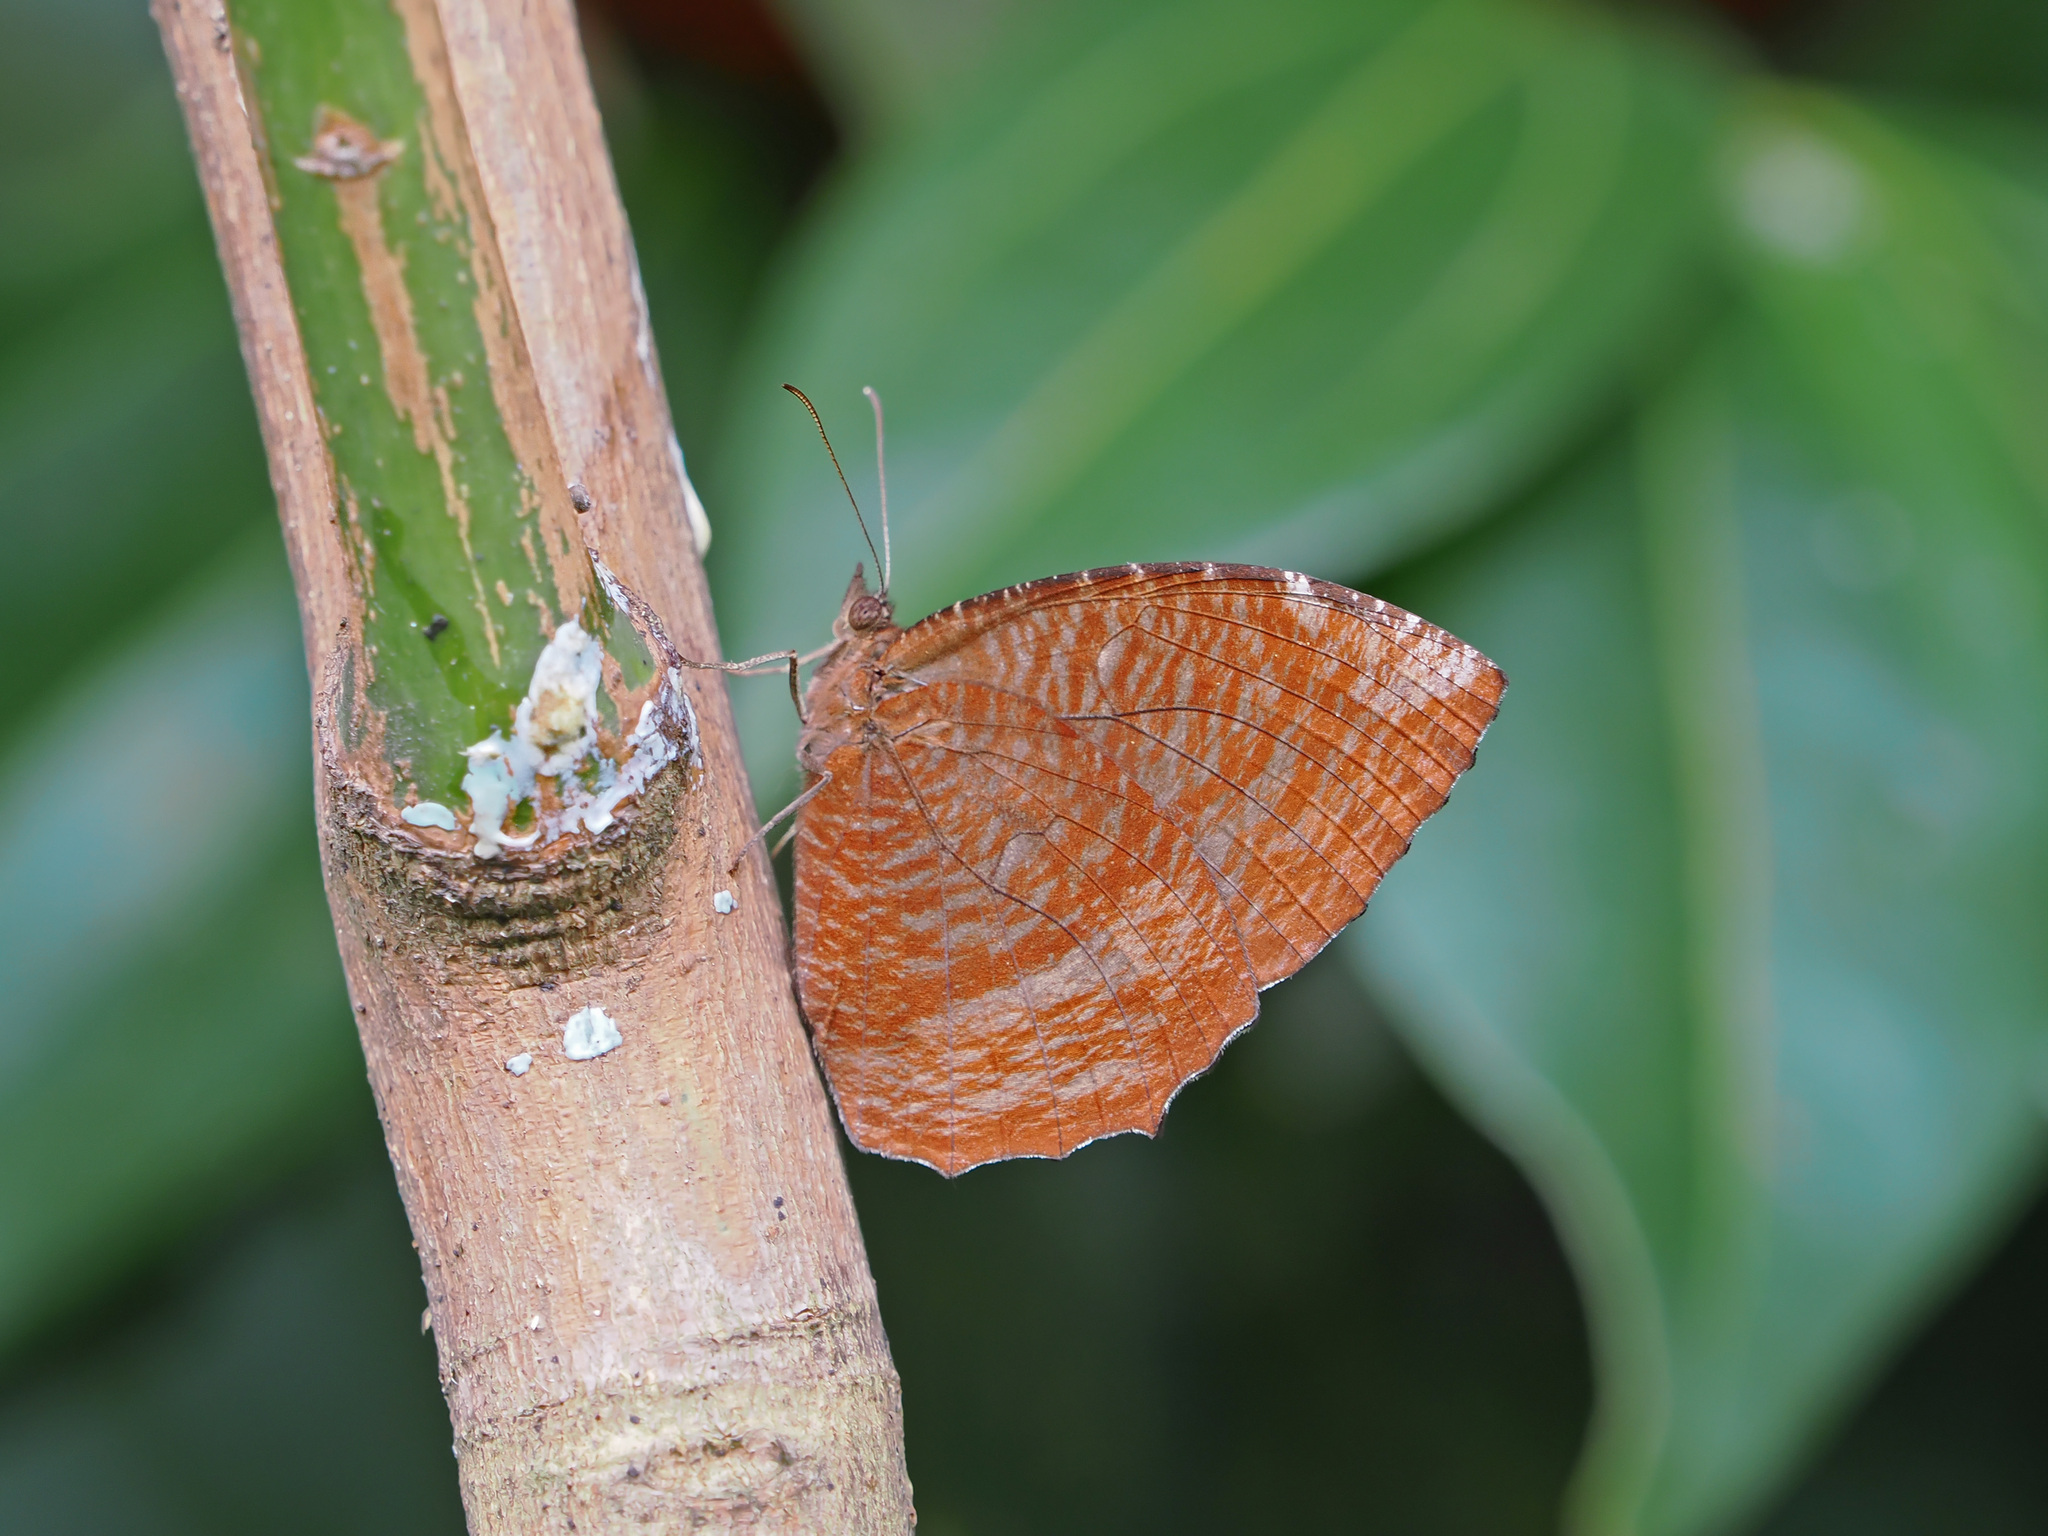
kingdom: Animalia
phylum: Arthropoda
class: Insecta
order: Lepidoptera
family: Nymphalidae
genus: Elymnias
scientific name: Elymnias hypermnestra
